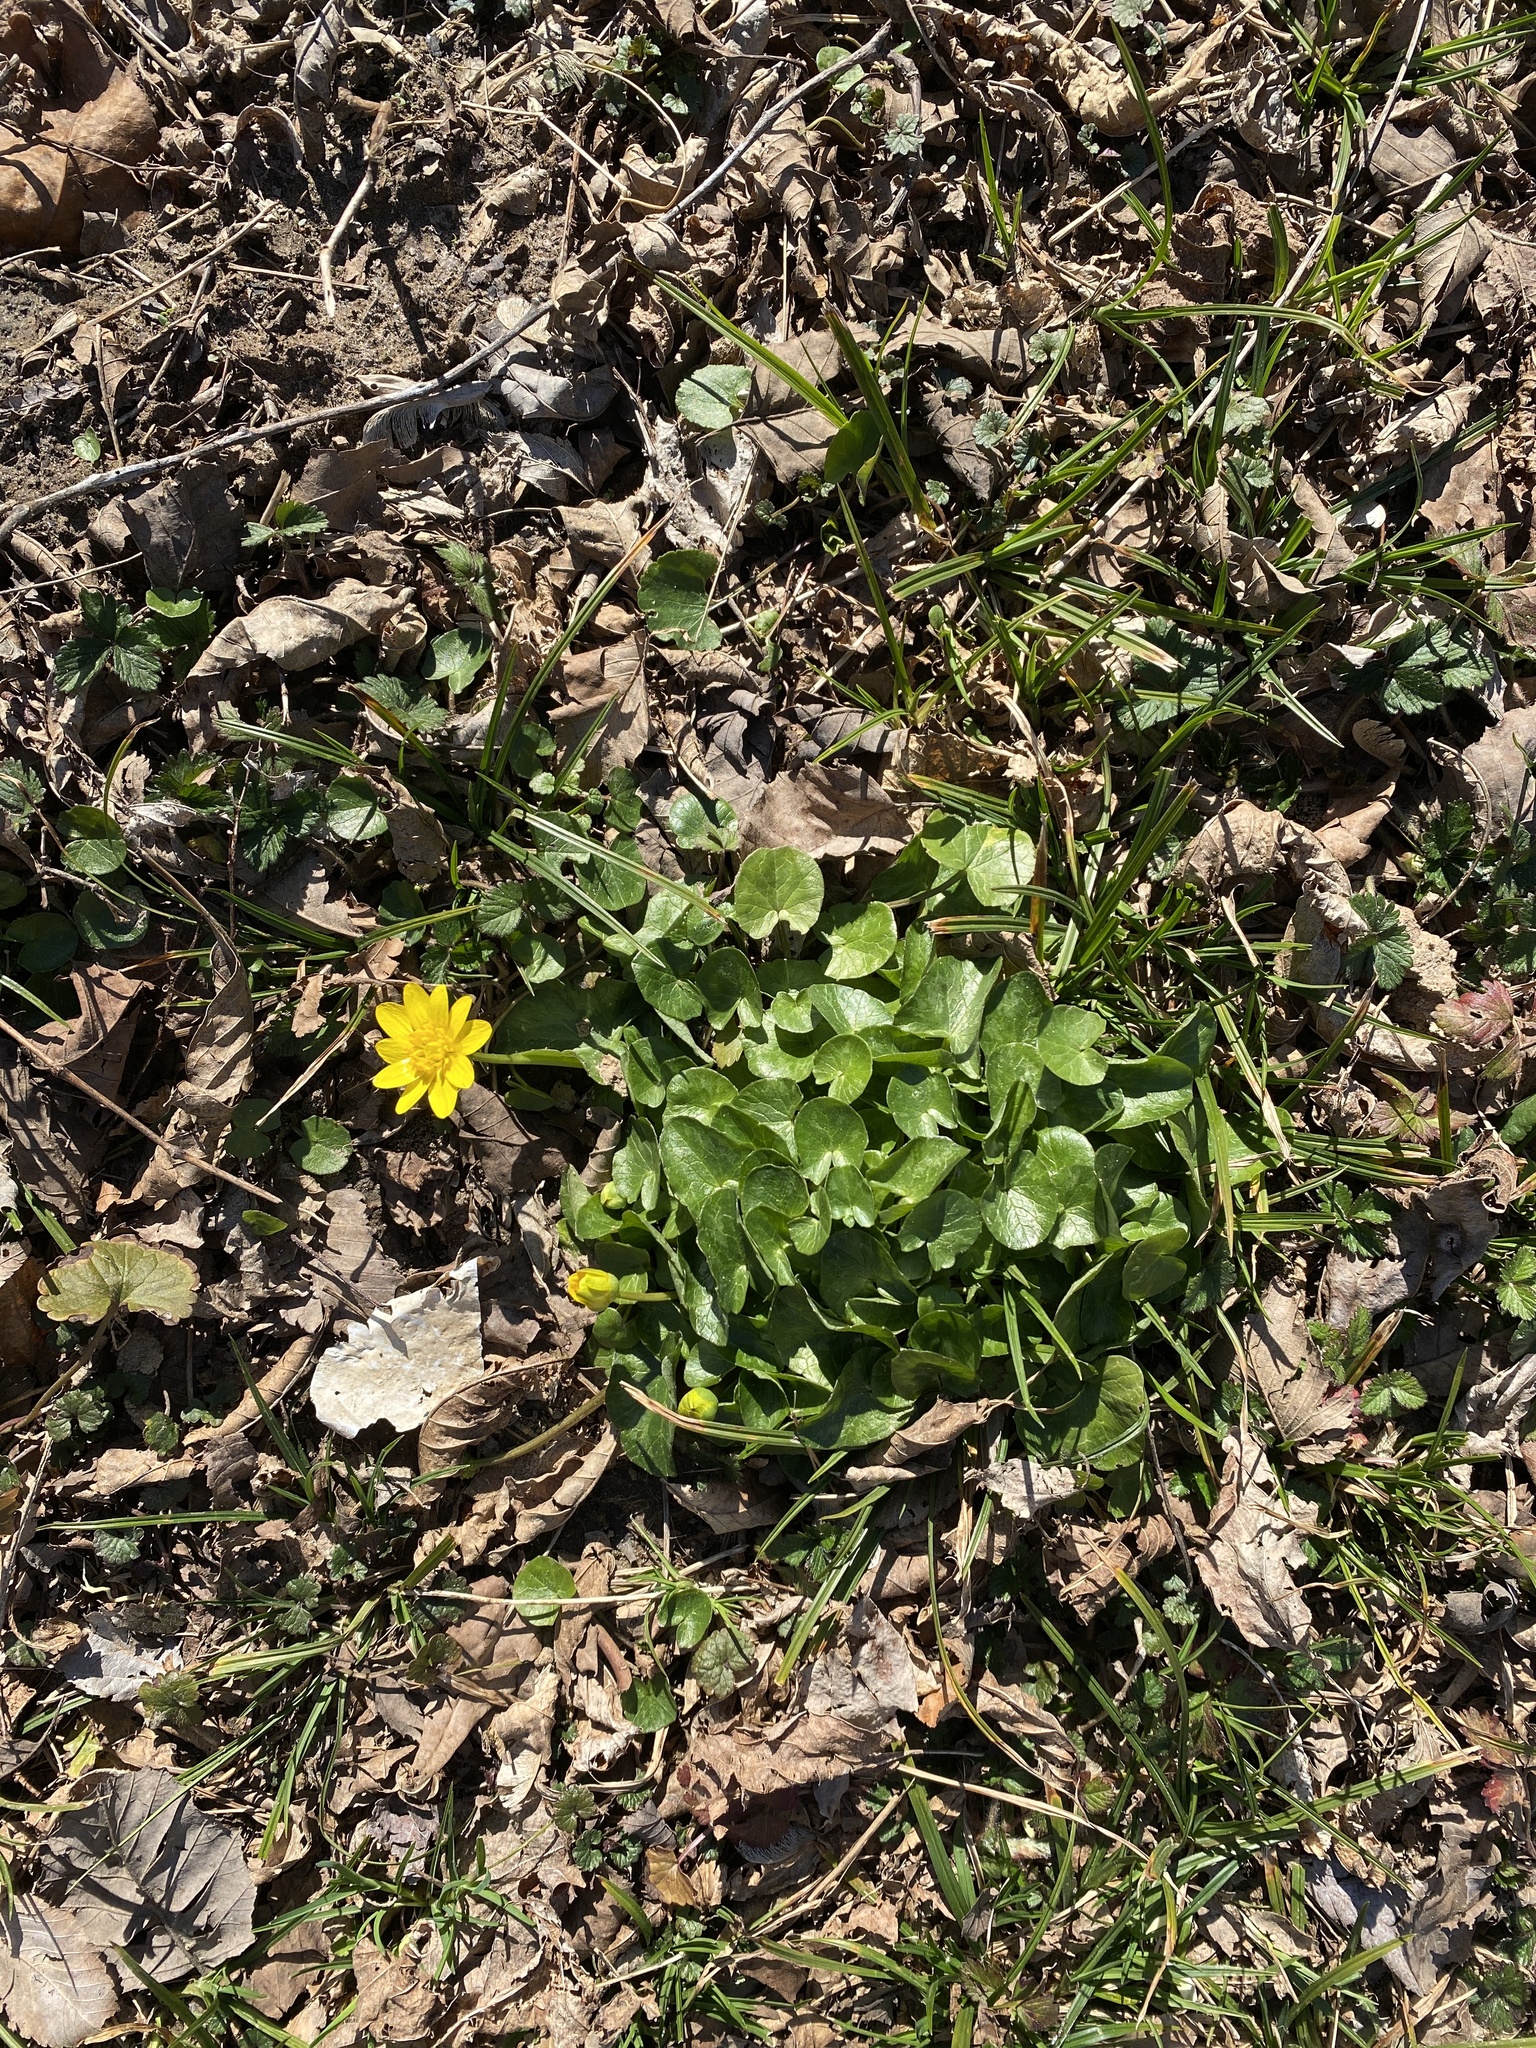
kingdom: Plantae
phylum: Tracheophyta
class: Magnoliopsida
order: Ranunculales
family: Ranunculaceae
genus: Ficaria
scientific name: Ficaria verna
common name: Lesser celandine
